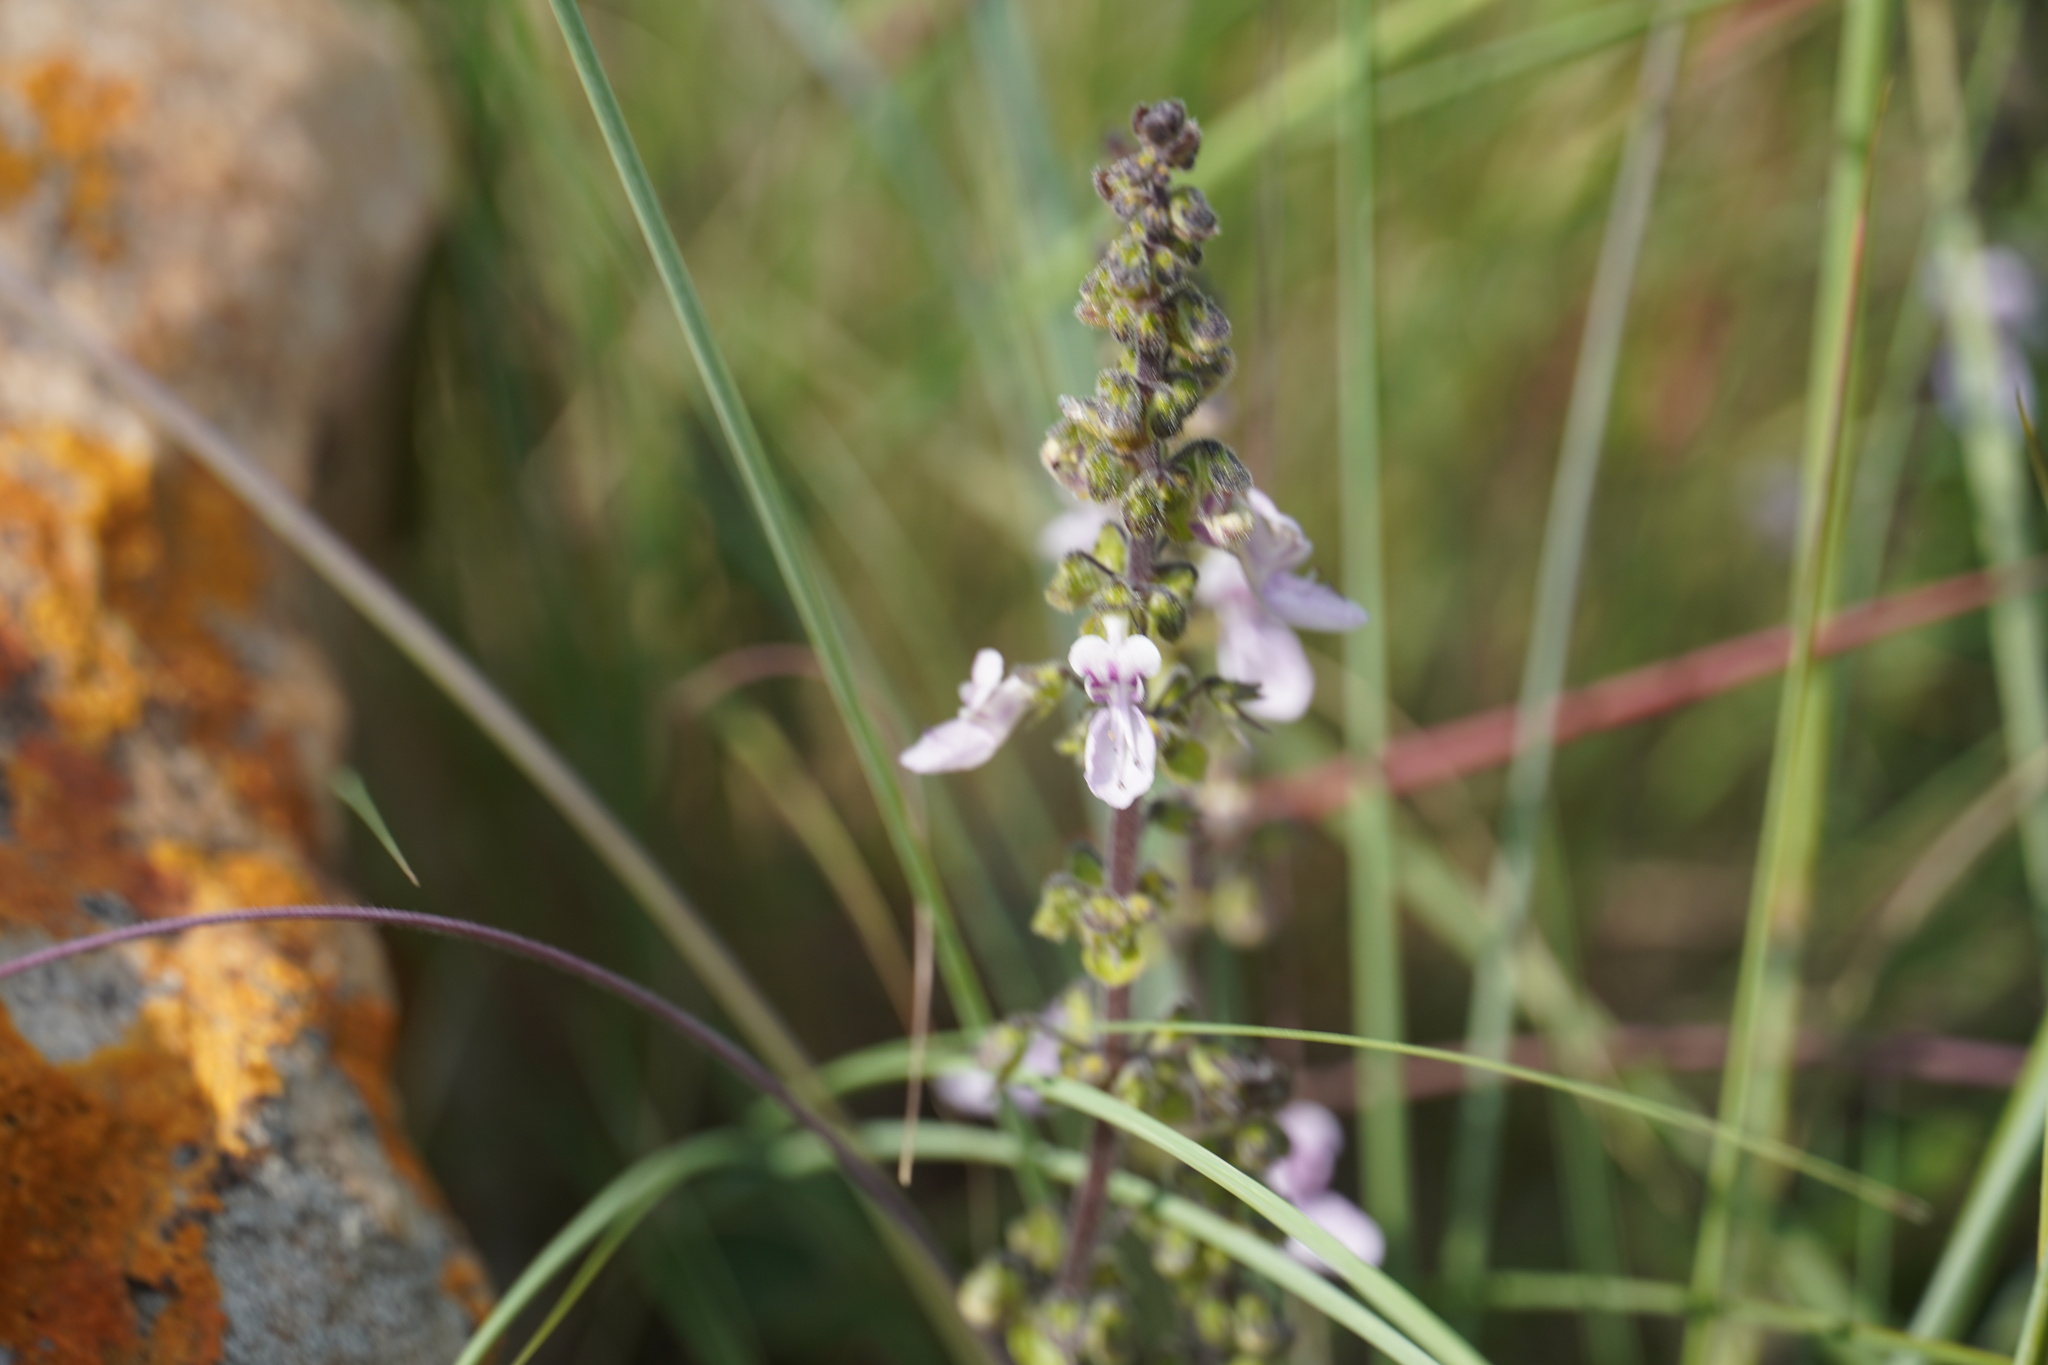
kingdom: Plantae
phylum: Tracheophyta
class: Magnoliopsida
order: Lamiales
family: Lamiaceae
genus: Coleus
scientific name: Coleus hadiensis
